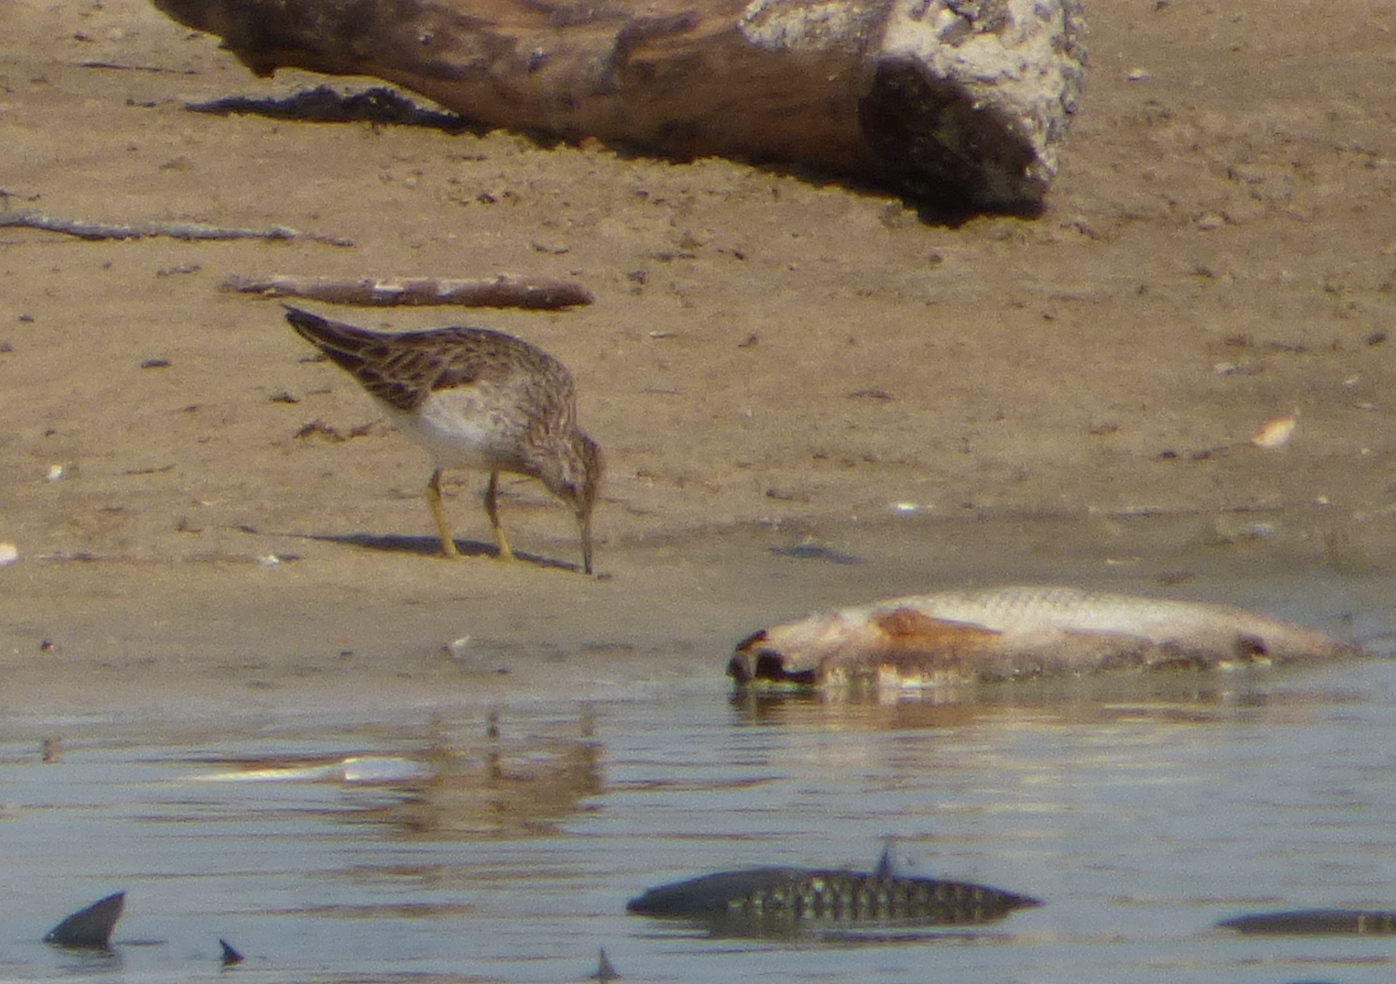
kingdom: Animalia
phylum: Chordata
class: Aves
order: Charadriiformes
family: Scolopacidae
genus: Calidris
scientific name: Calidris melanotos
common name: Pectoral sandpiper
